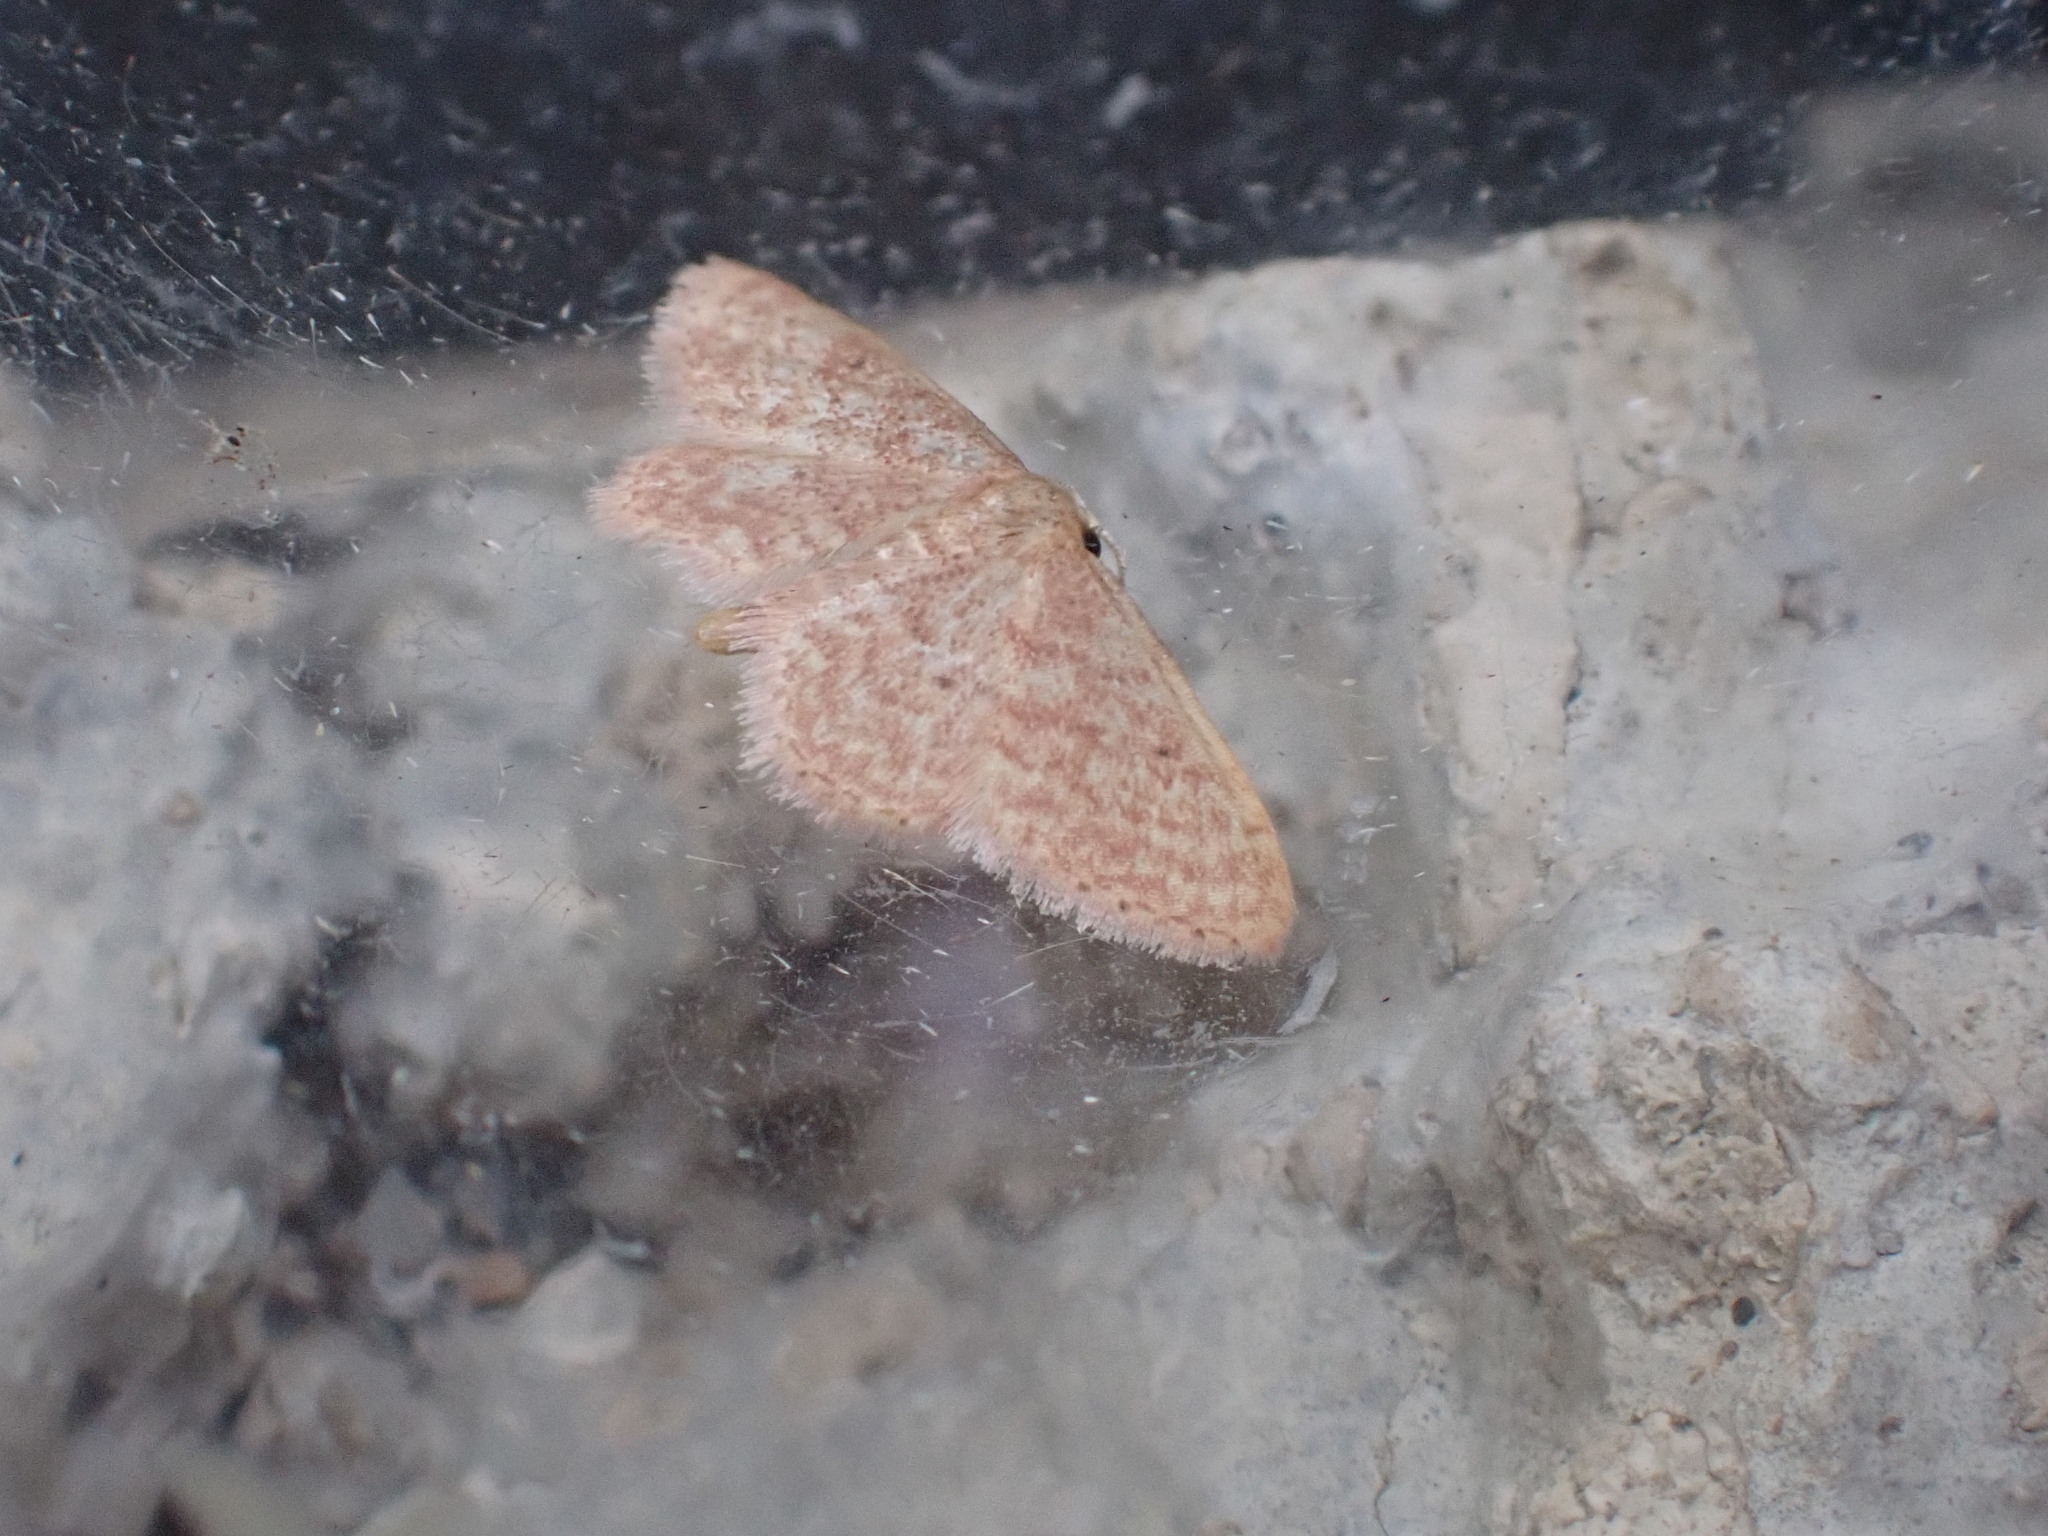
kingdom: Animalia
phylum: Arthropoda
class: Insecta
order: Lepidoptera
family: Geometridae
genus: Idaea
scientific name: Idaea charitata
